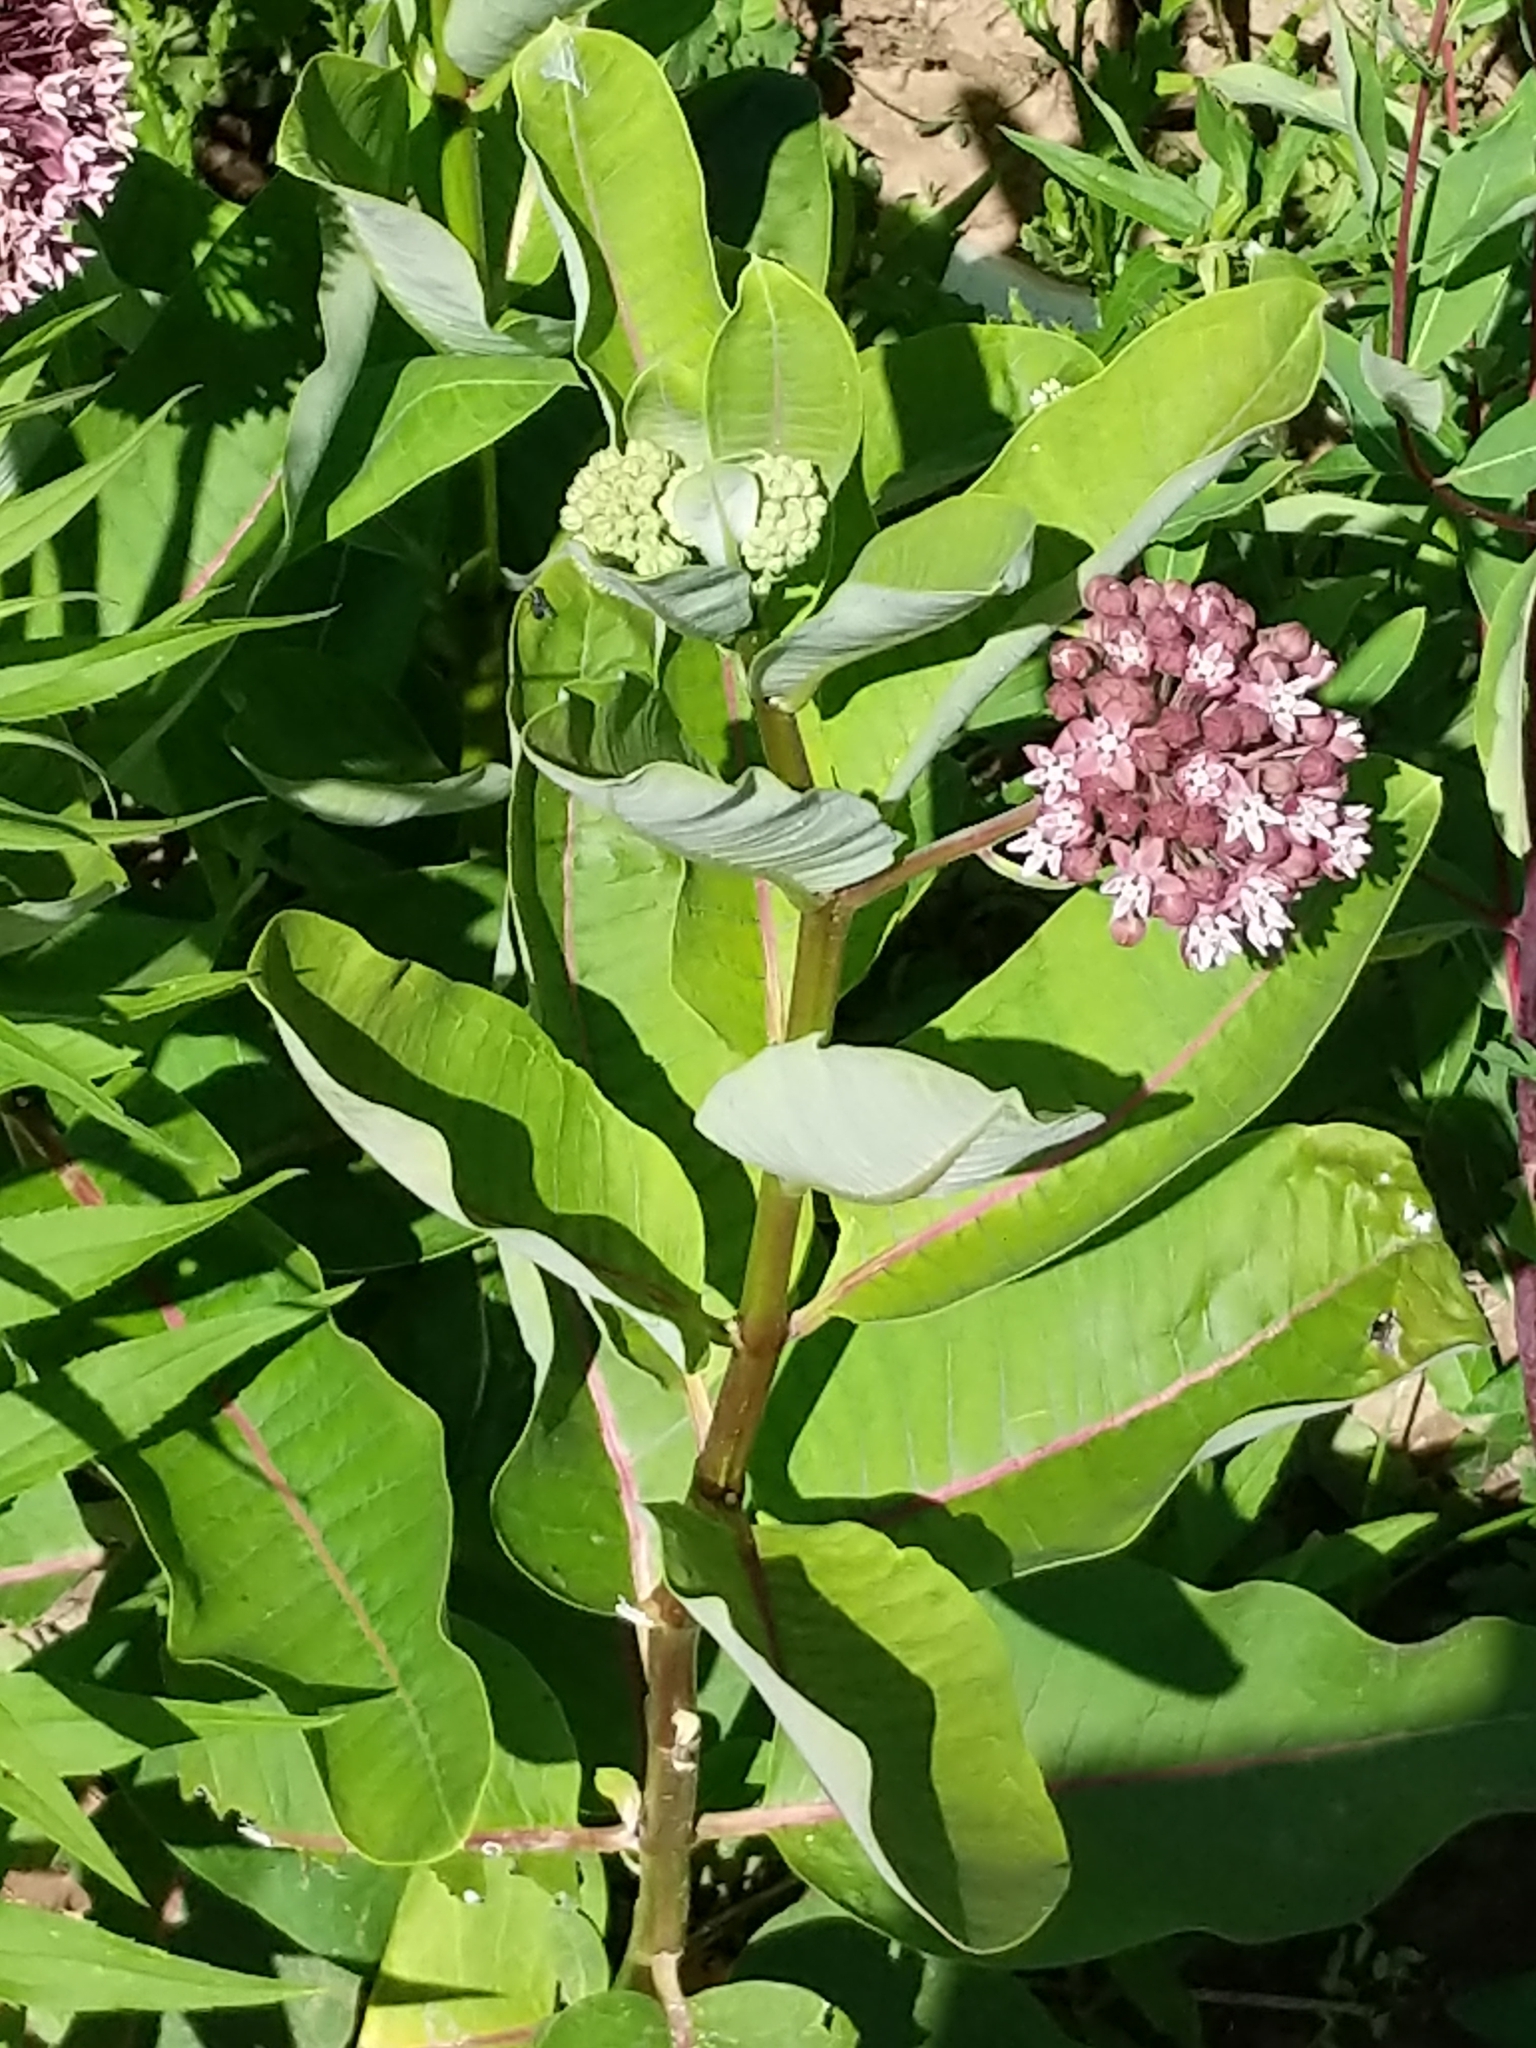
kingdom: Plantae
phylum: Tracheophyta
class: Magnoliopsida
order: Gentianales
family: Apocynaceae
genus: Asclepias
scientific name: Asclepias syriaca
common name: Common milkweed
